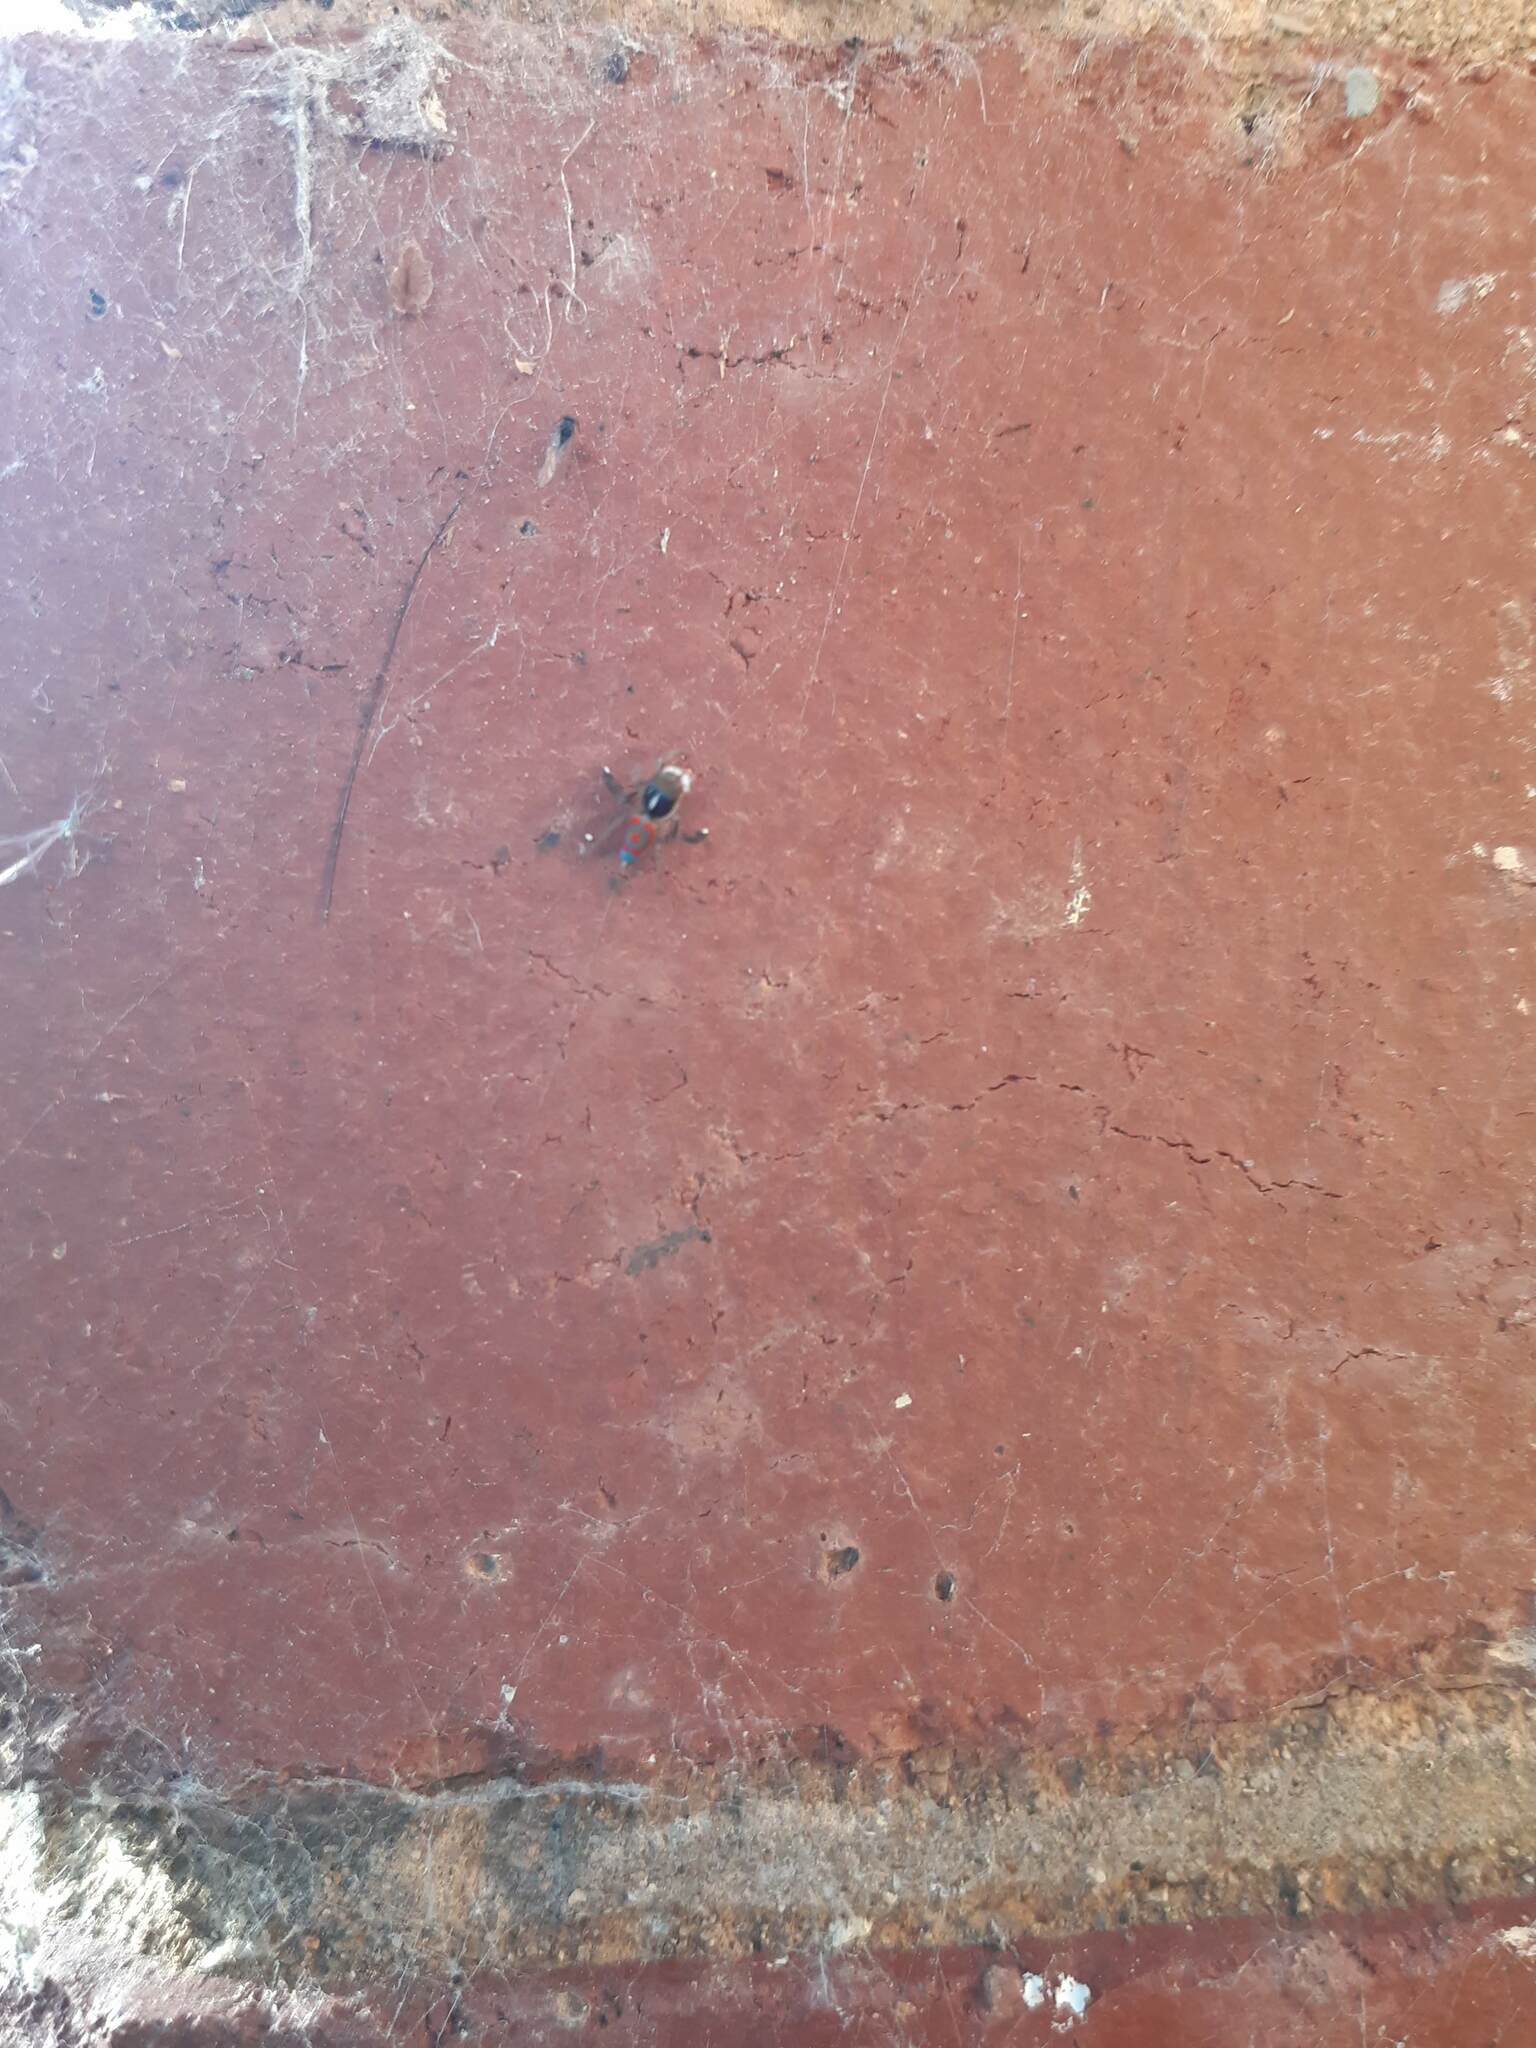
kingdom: Animalia
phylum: Arthropoda
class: Arachnida
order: Araneae
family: Salticidae
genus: Maratus
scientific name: Maratus pavonis
